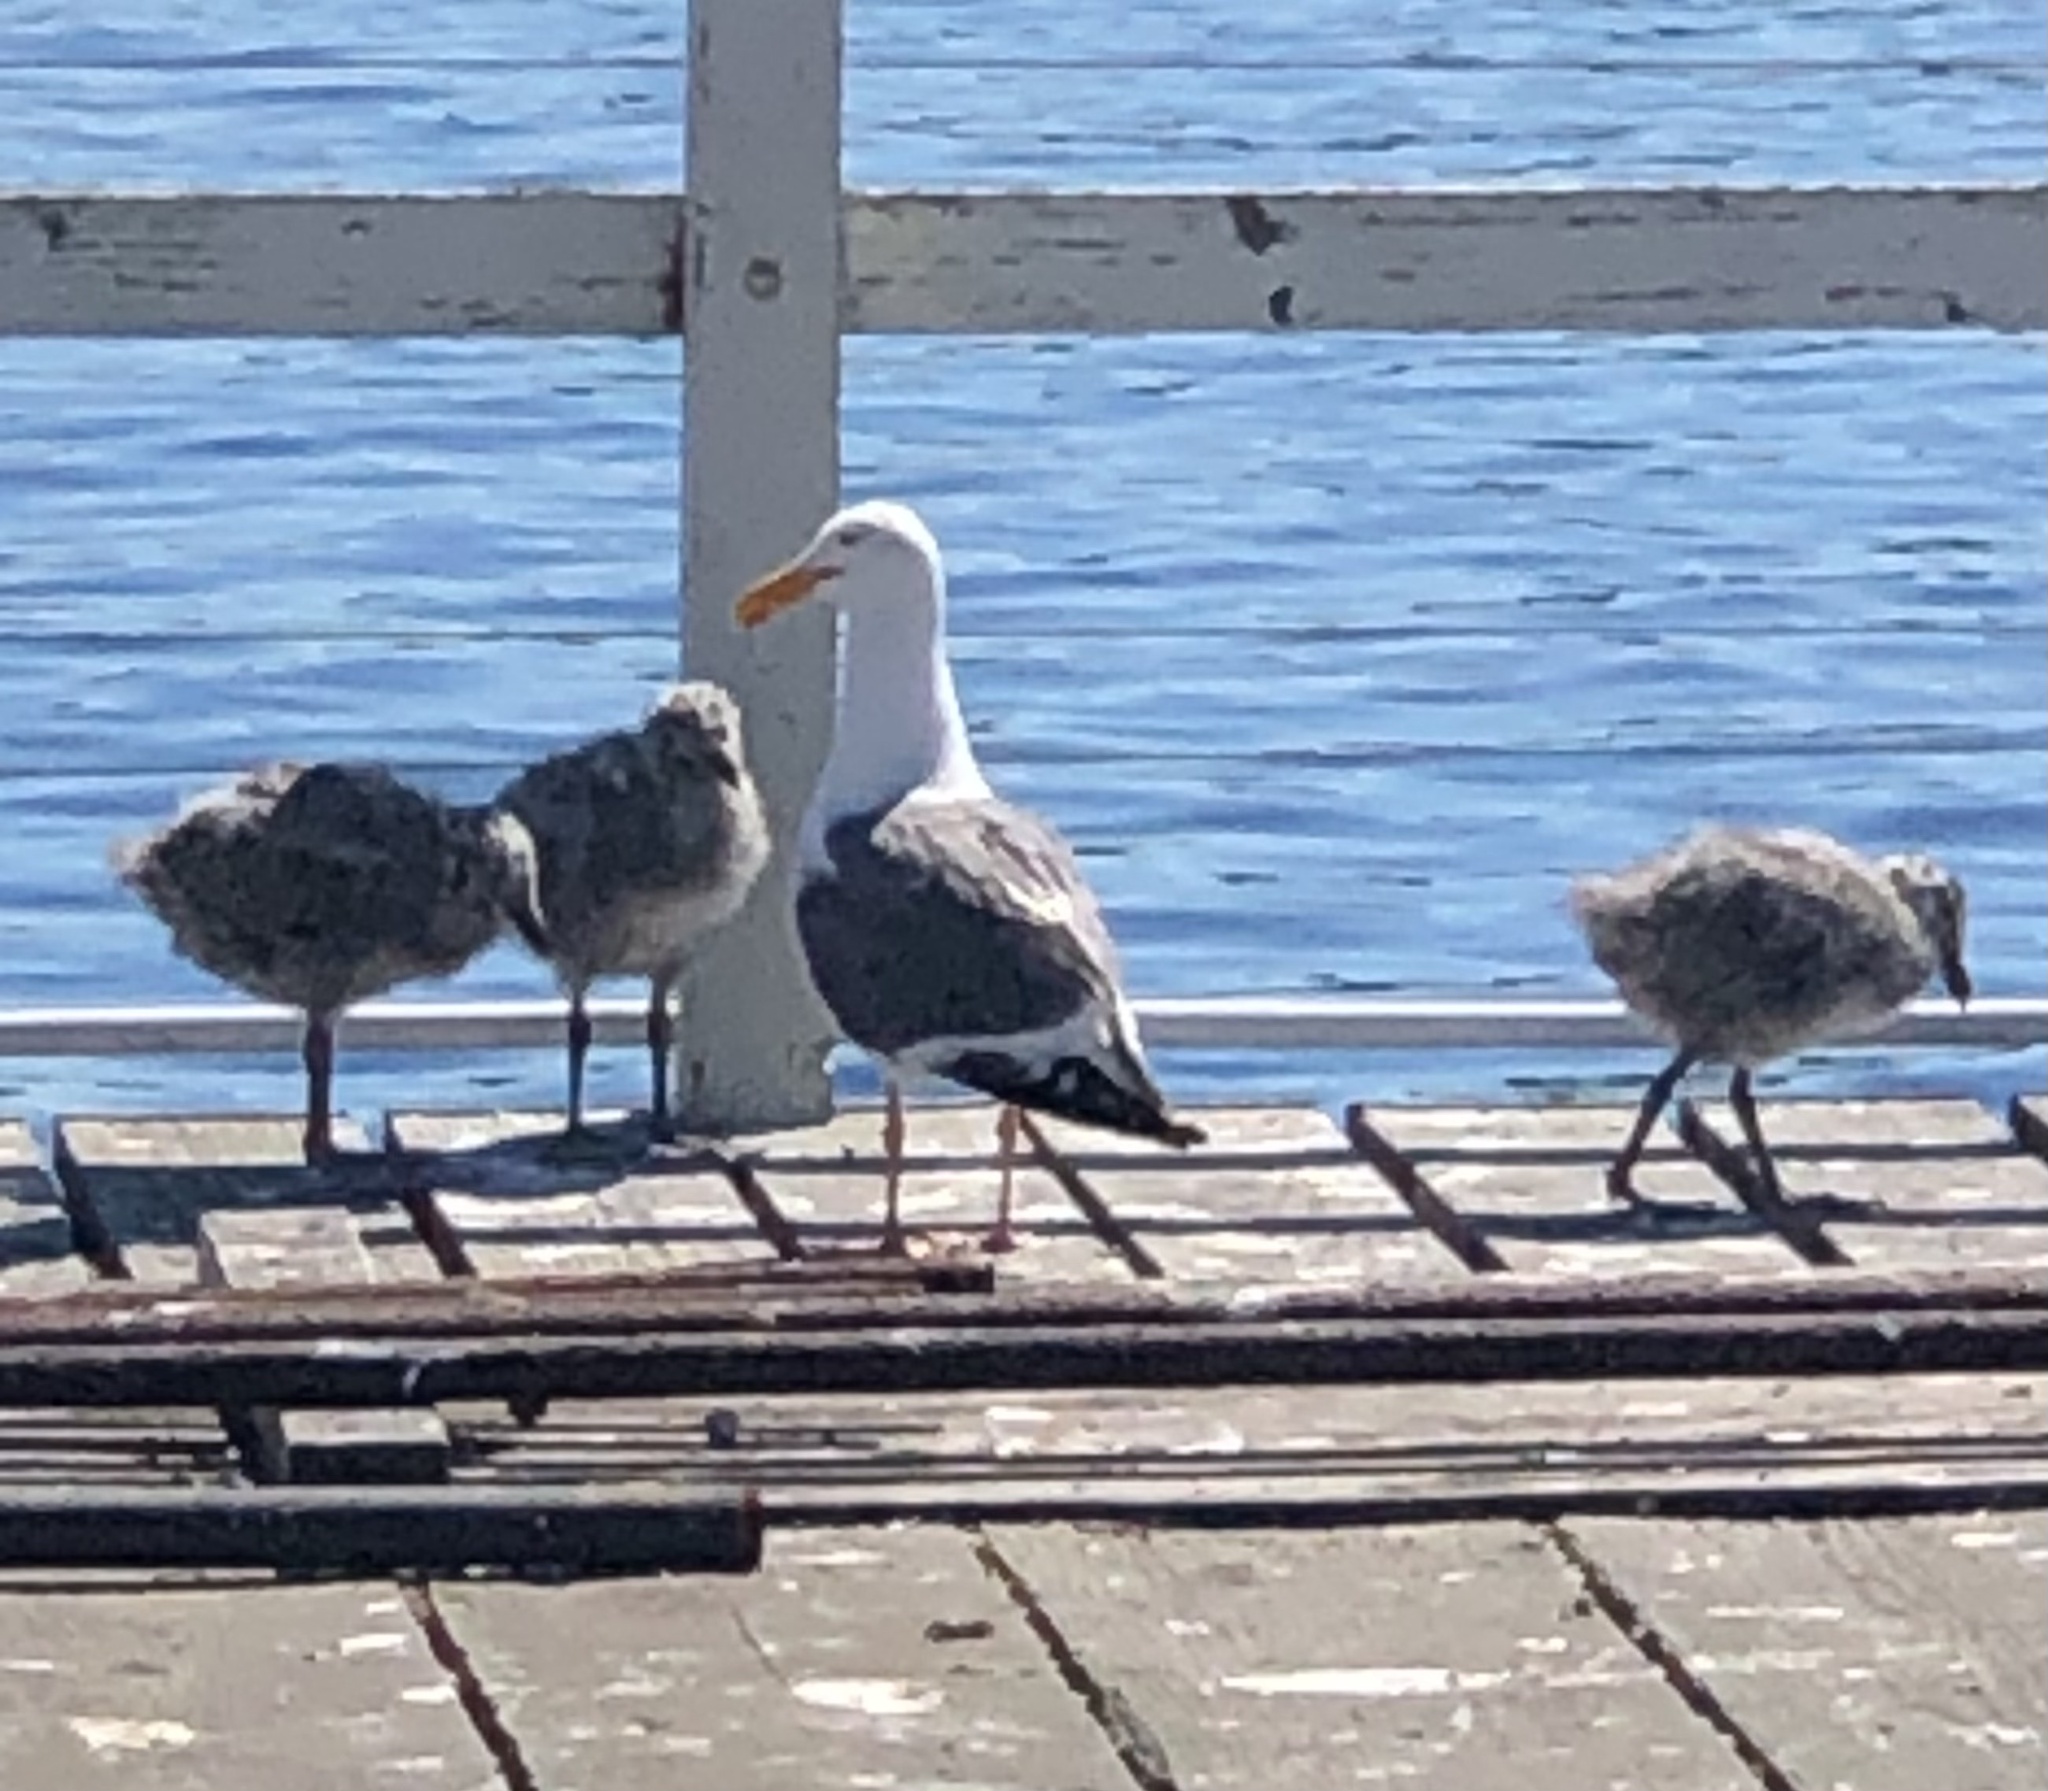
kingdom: Animalia
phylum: Chordata
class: Aves
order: Charadriiformes
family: Laridae
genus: Larus
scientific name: Larus occidentalis
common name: Western gull
